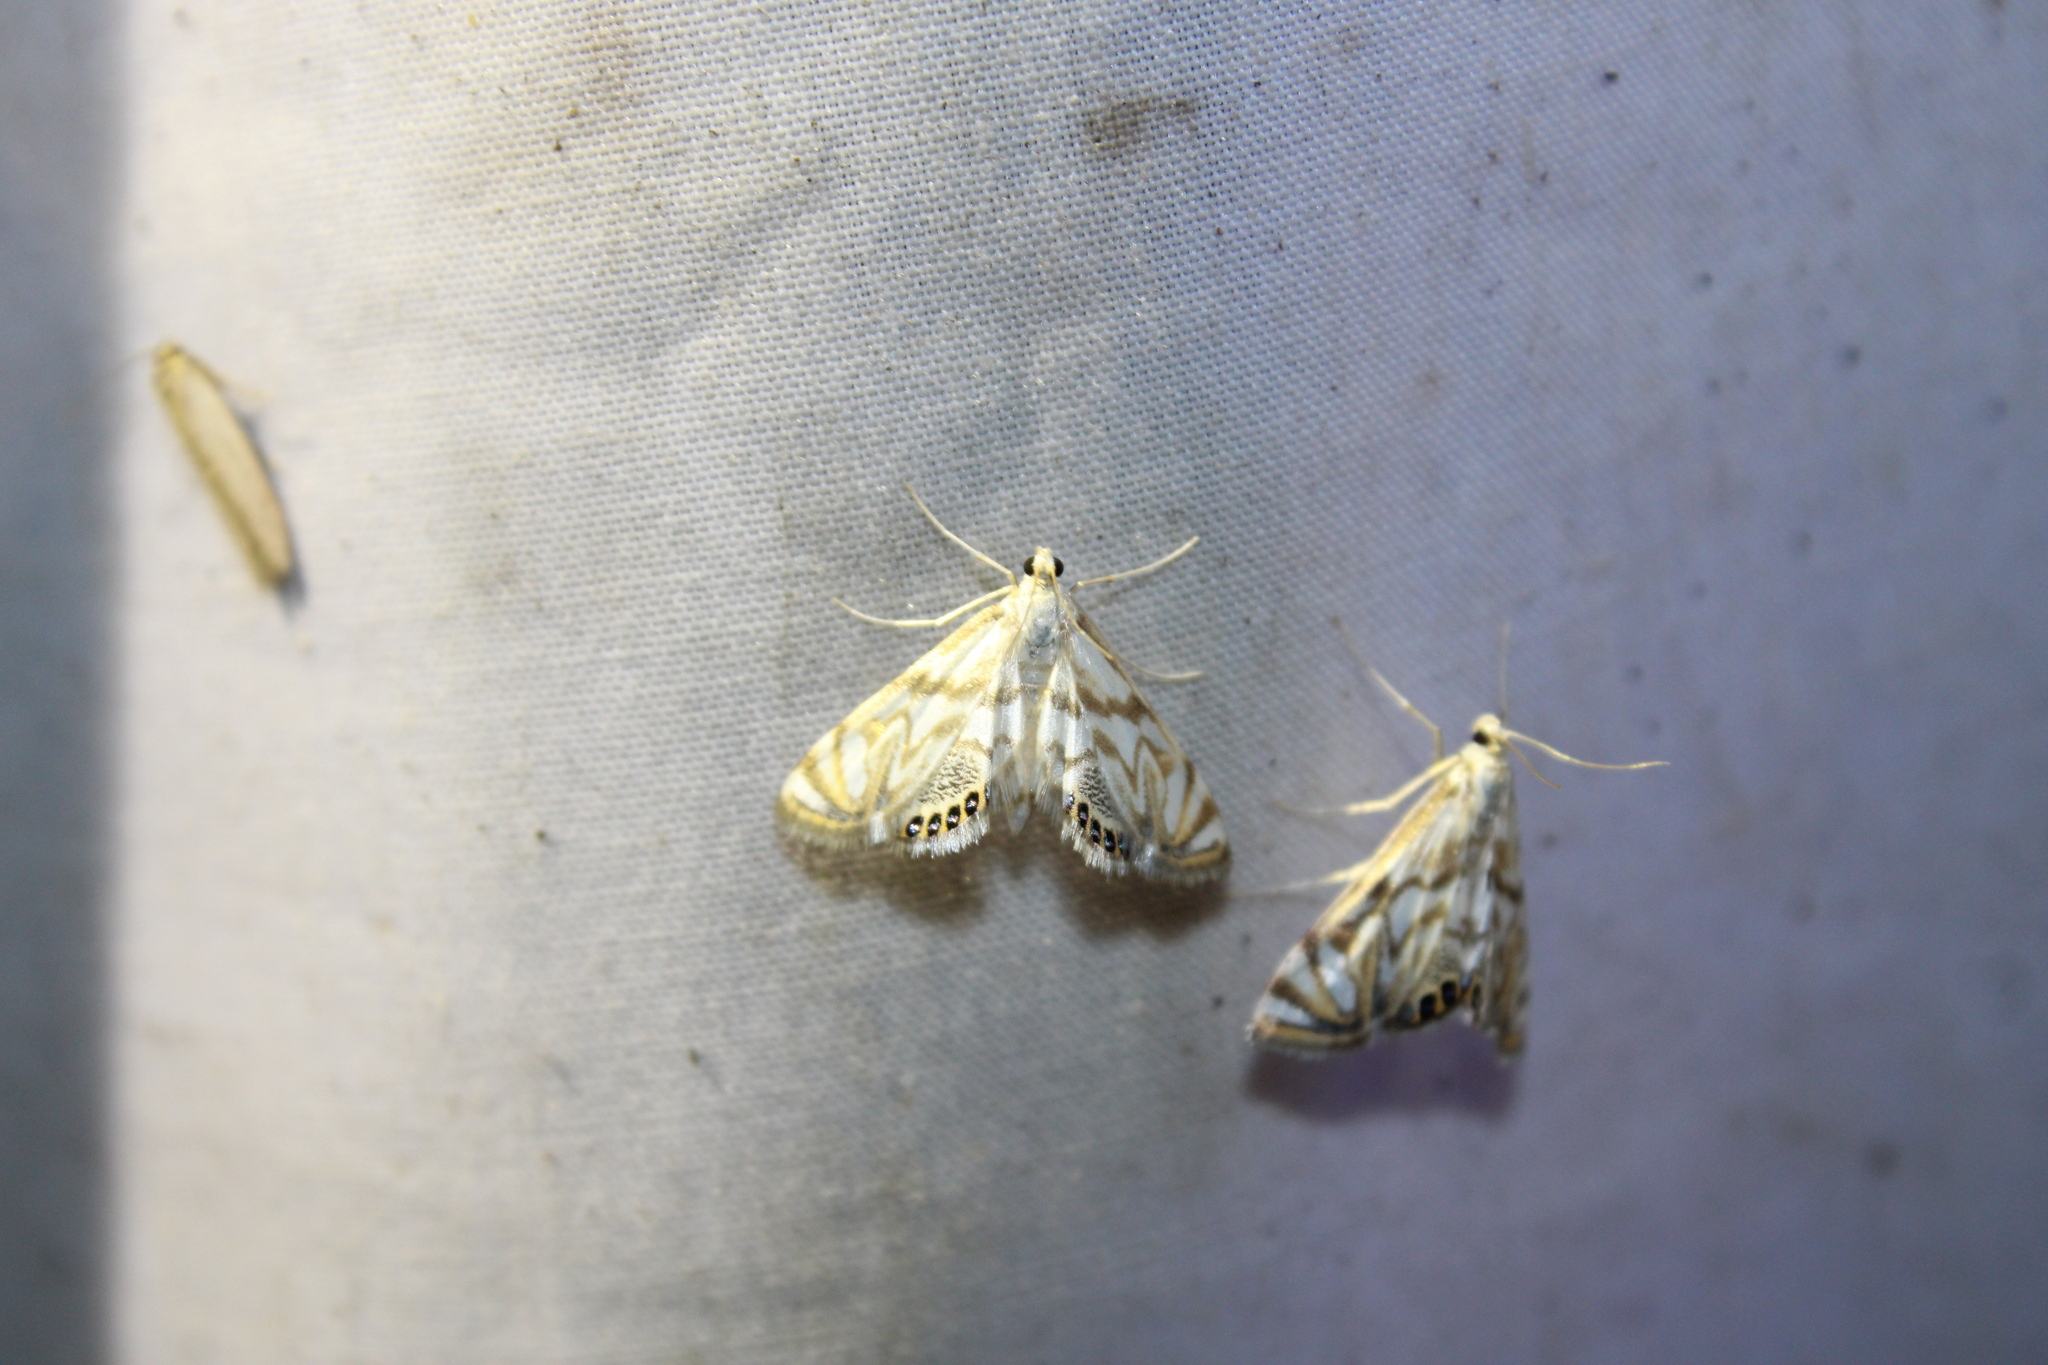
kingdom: Animalia
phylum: Arthropoda
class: Insecta
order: Lepidoptera
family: Crambidae
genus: Neocataclysta
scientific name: Neocataclysta magnificalis
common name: Scrollwork pyralid moth
